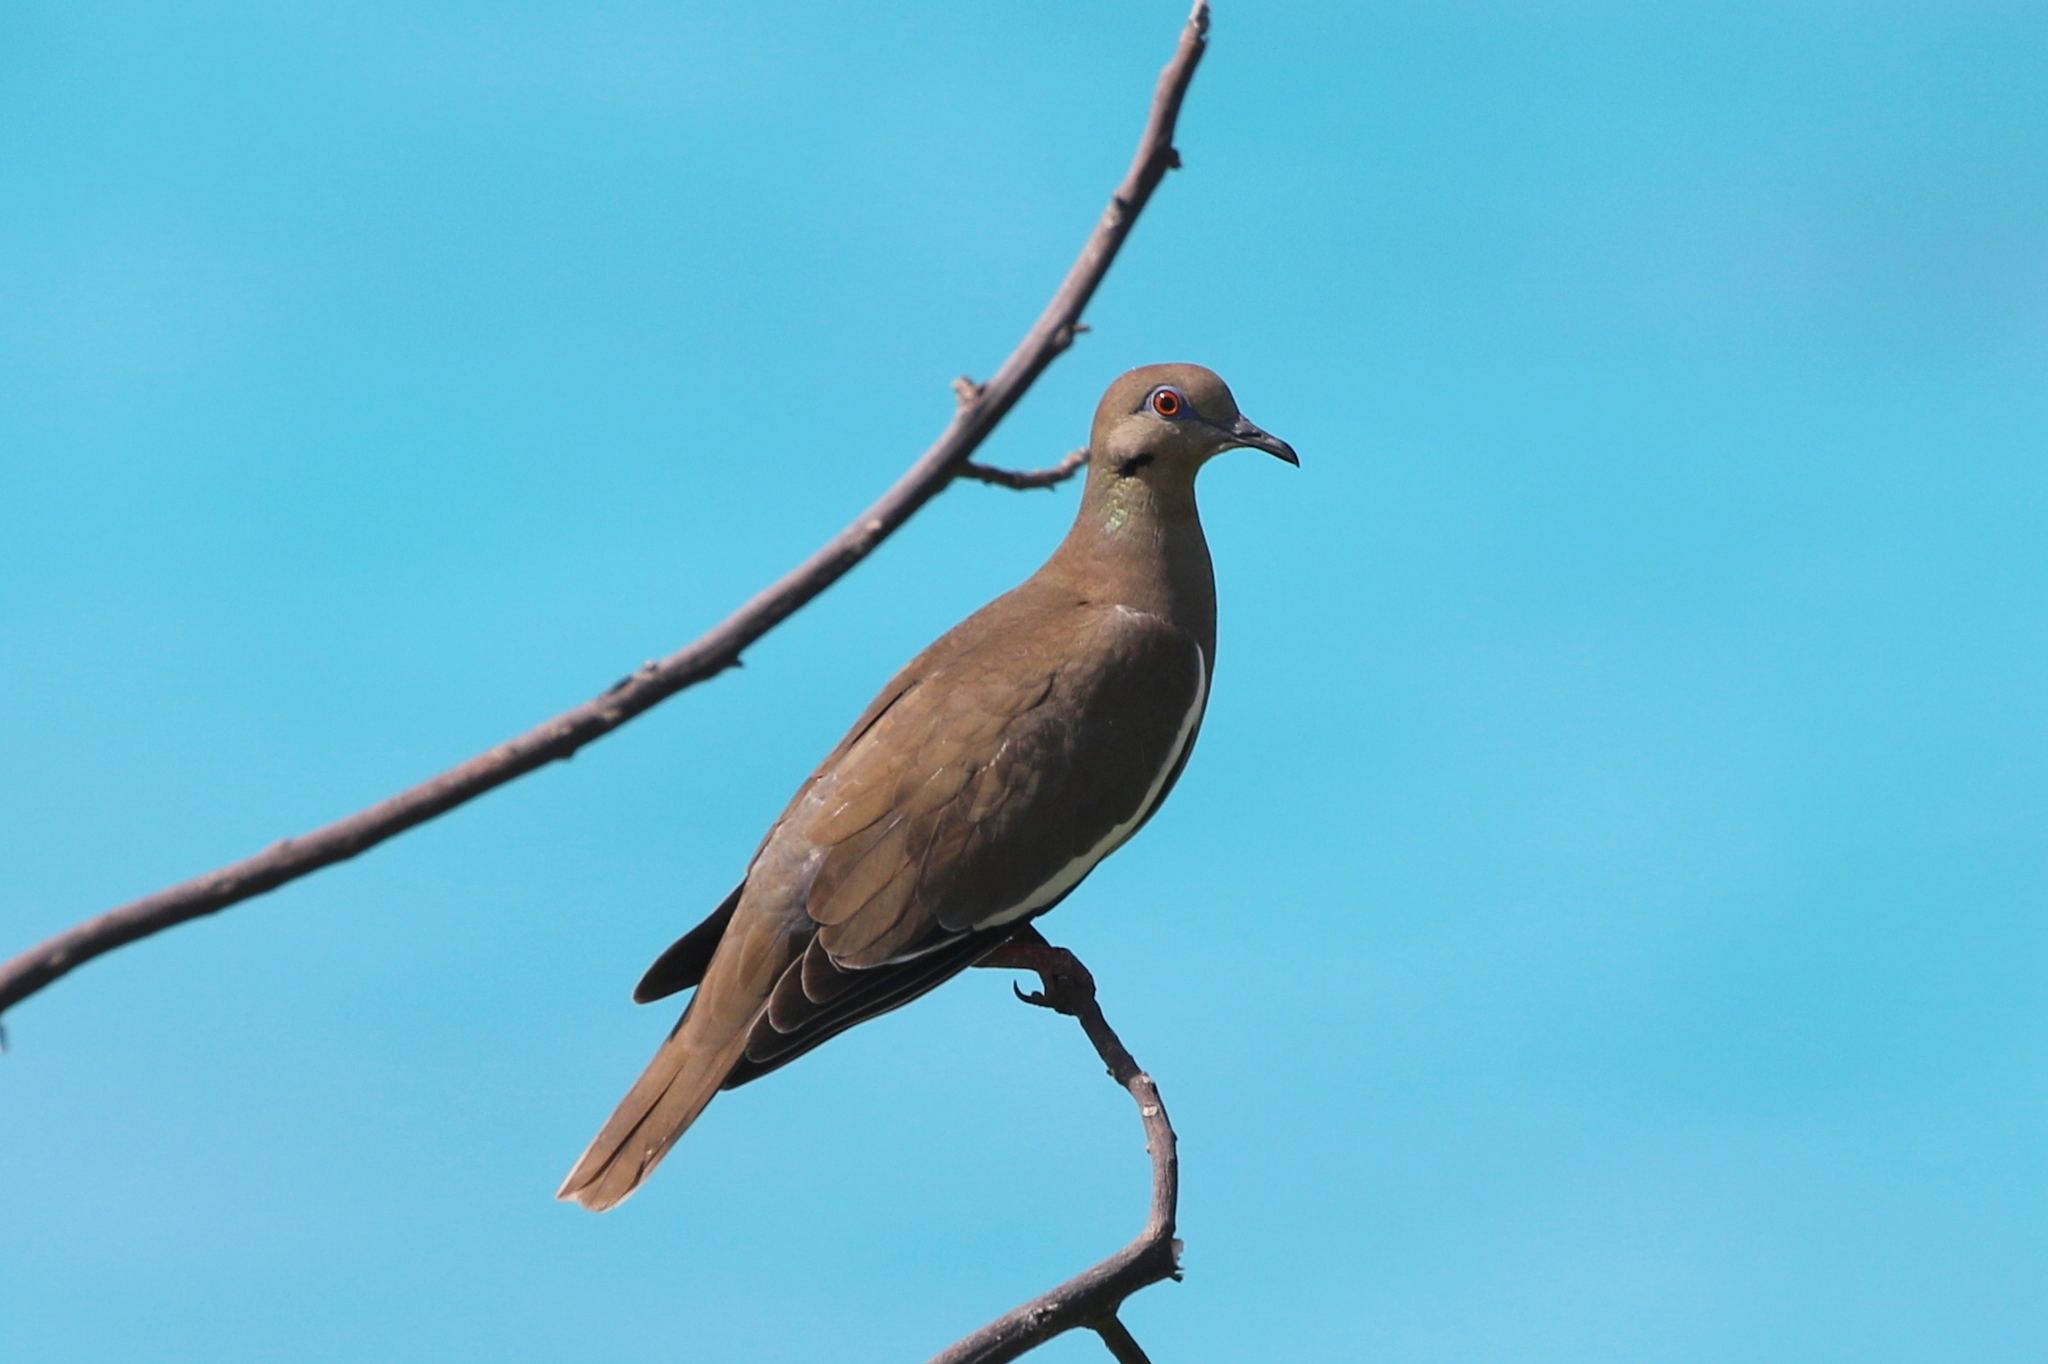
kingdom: Animalia
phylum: Chordata
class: Aves
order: Columbiformes
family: Columbidae
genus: Zenaida
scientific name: Zenaida asiatica
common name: White-winged dove
